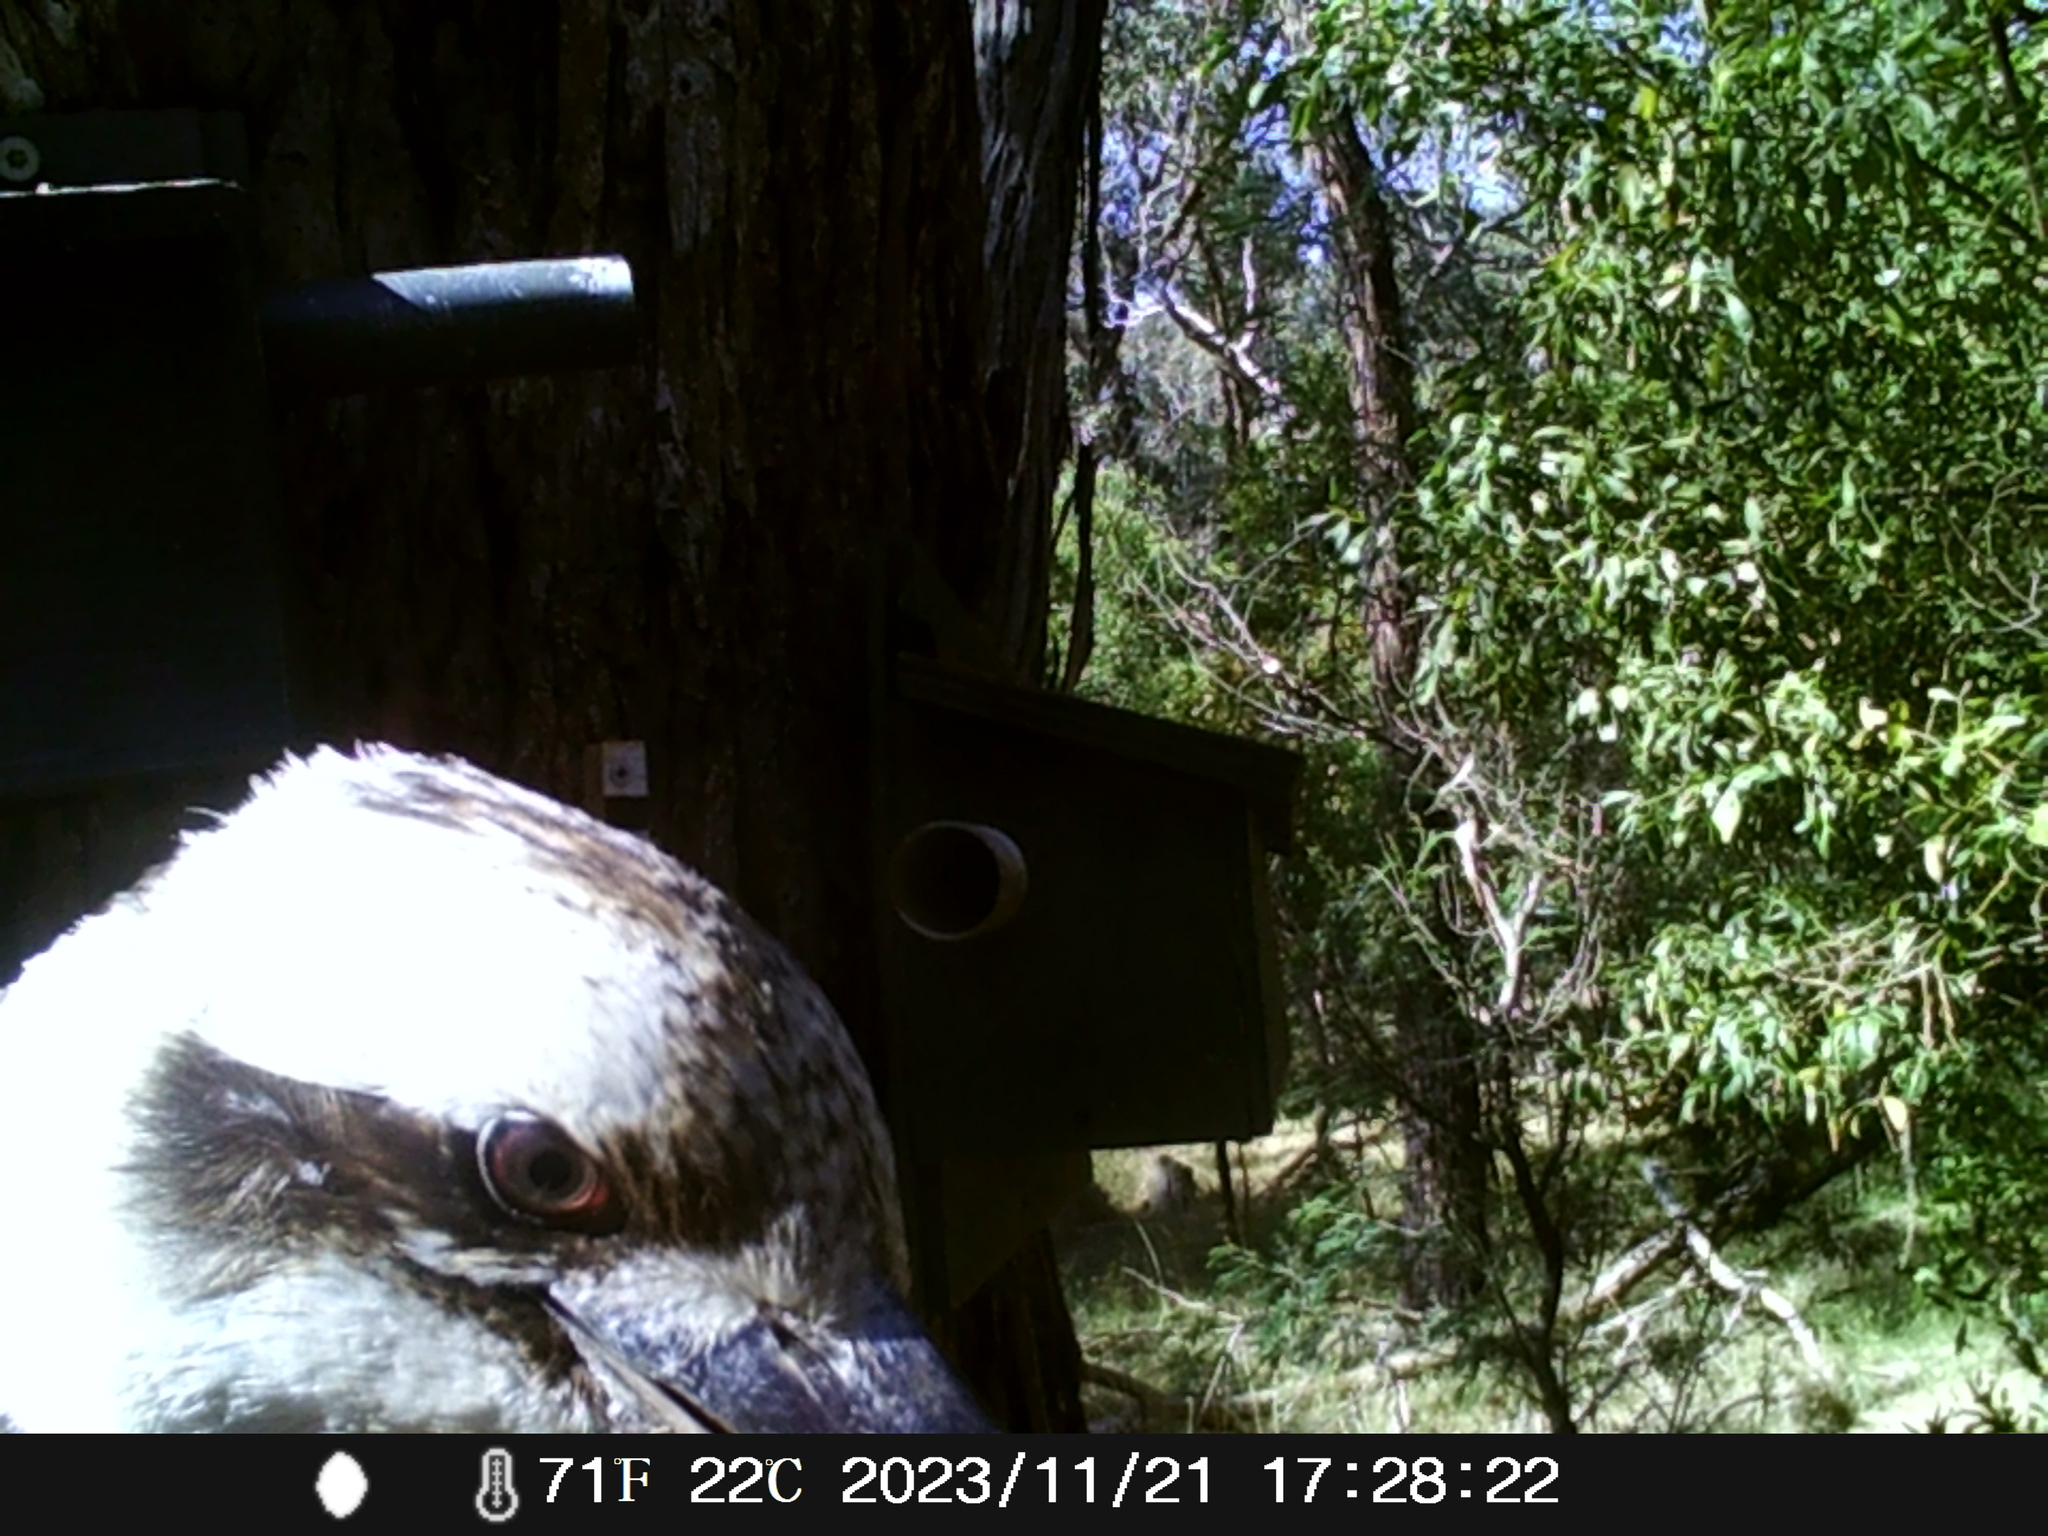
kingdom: Animalia
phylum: Chordata
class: Aves
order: Coraciiformes
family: Alcedinidae
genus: Dacelo
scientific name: Dacelo novaeguineae
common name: Laughing kookaburra
